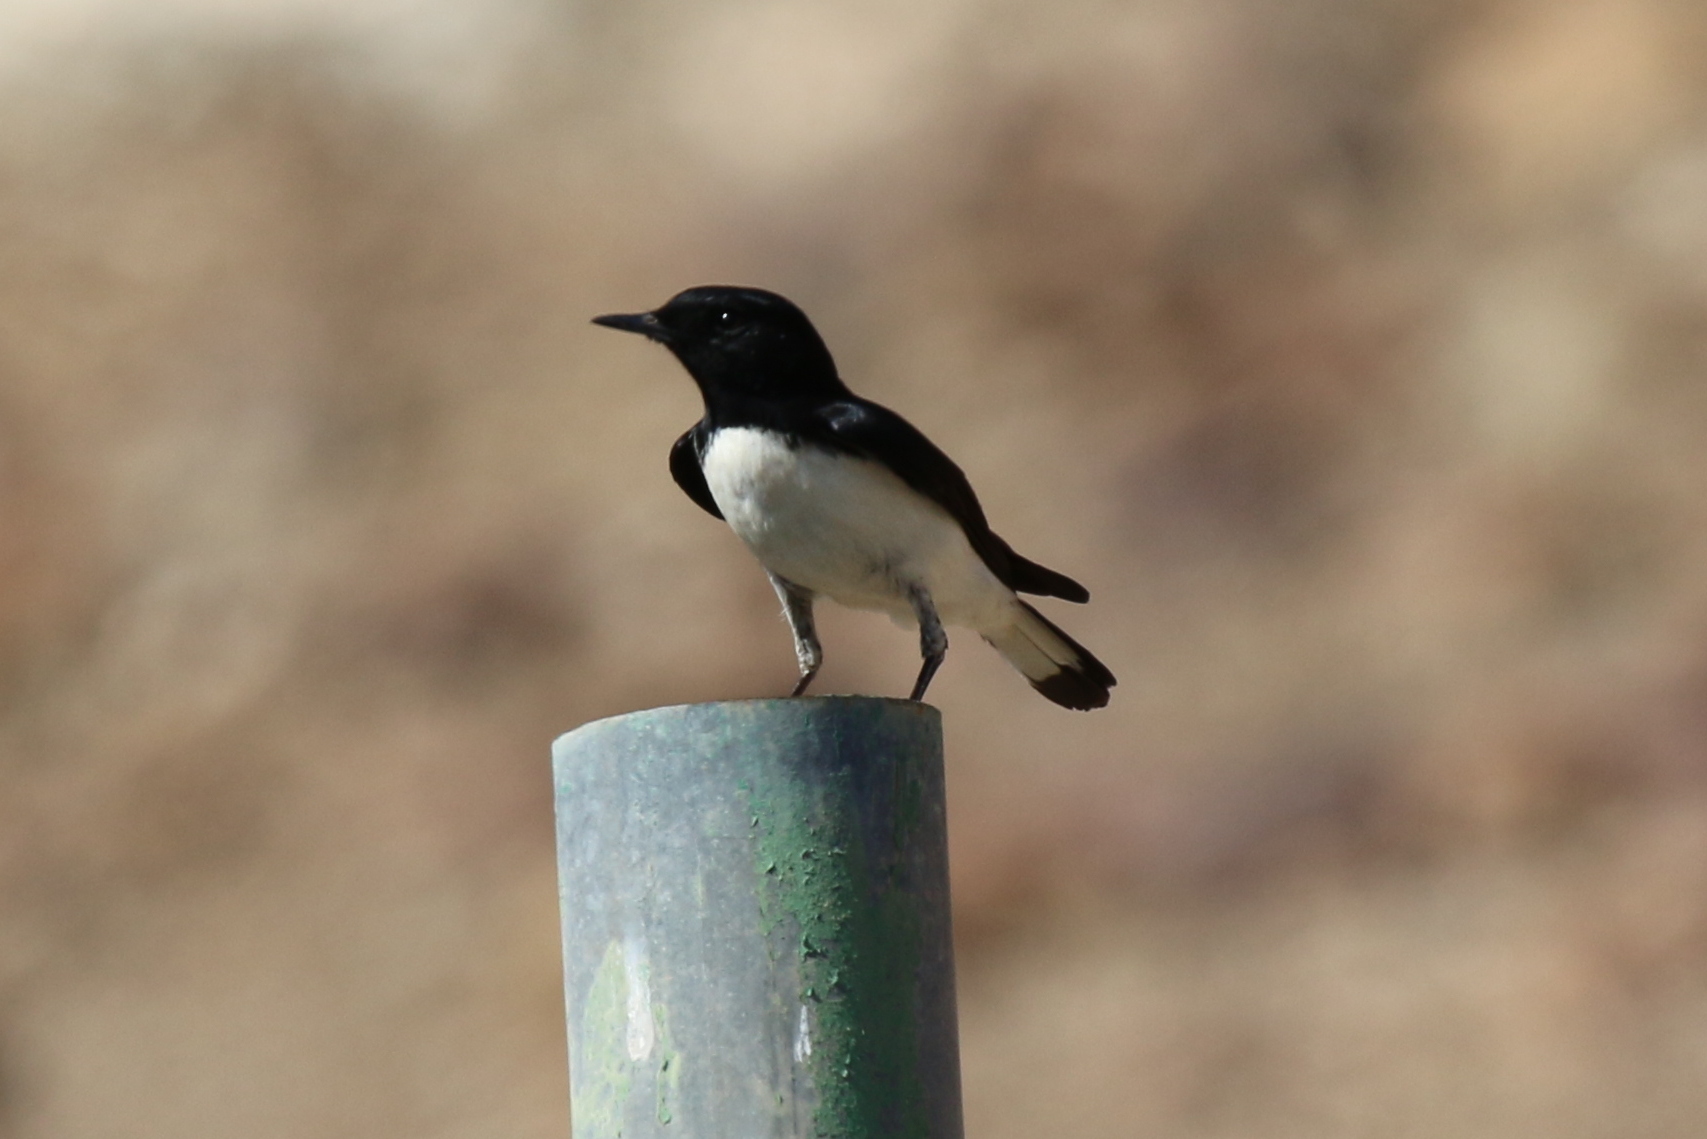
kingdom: Animalia
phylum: Chordata
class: Aves
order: Passeriformes
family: Muscicapidae
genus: Oenanthe
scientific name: Oenanthe albonigra
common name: Hume's wheatear
